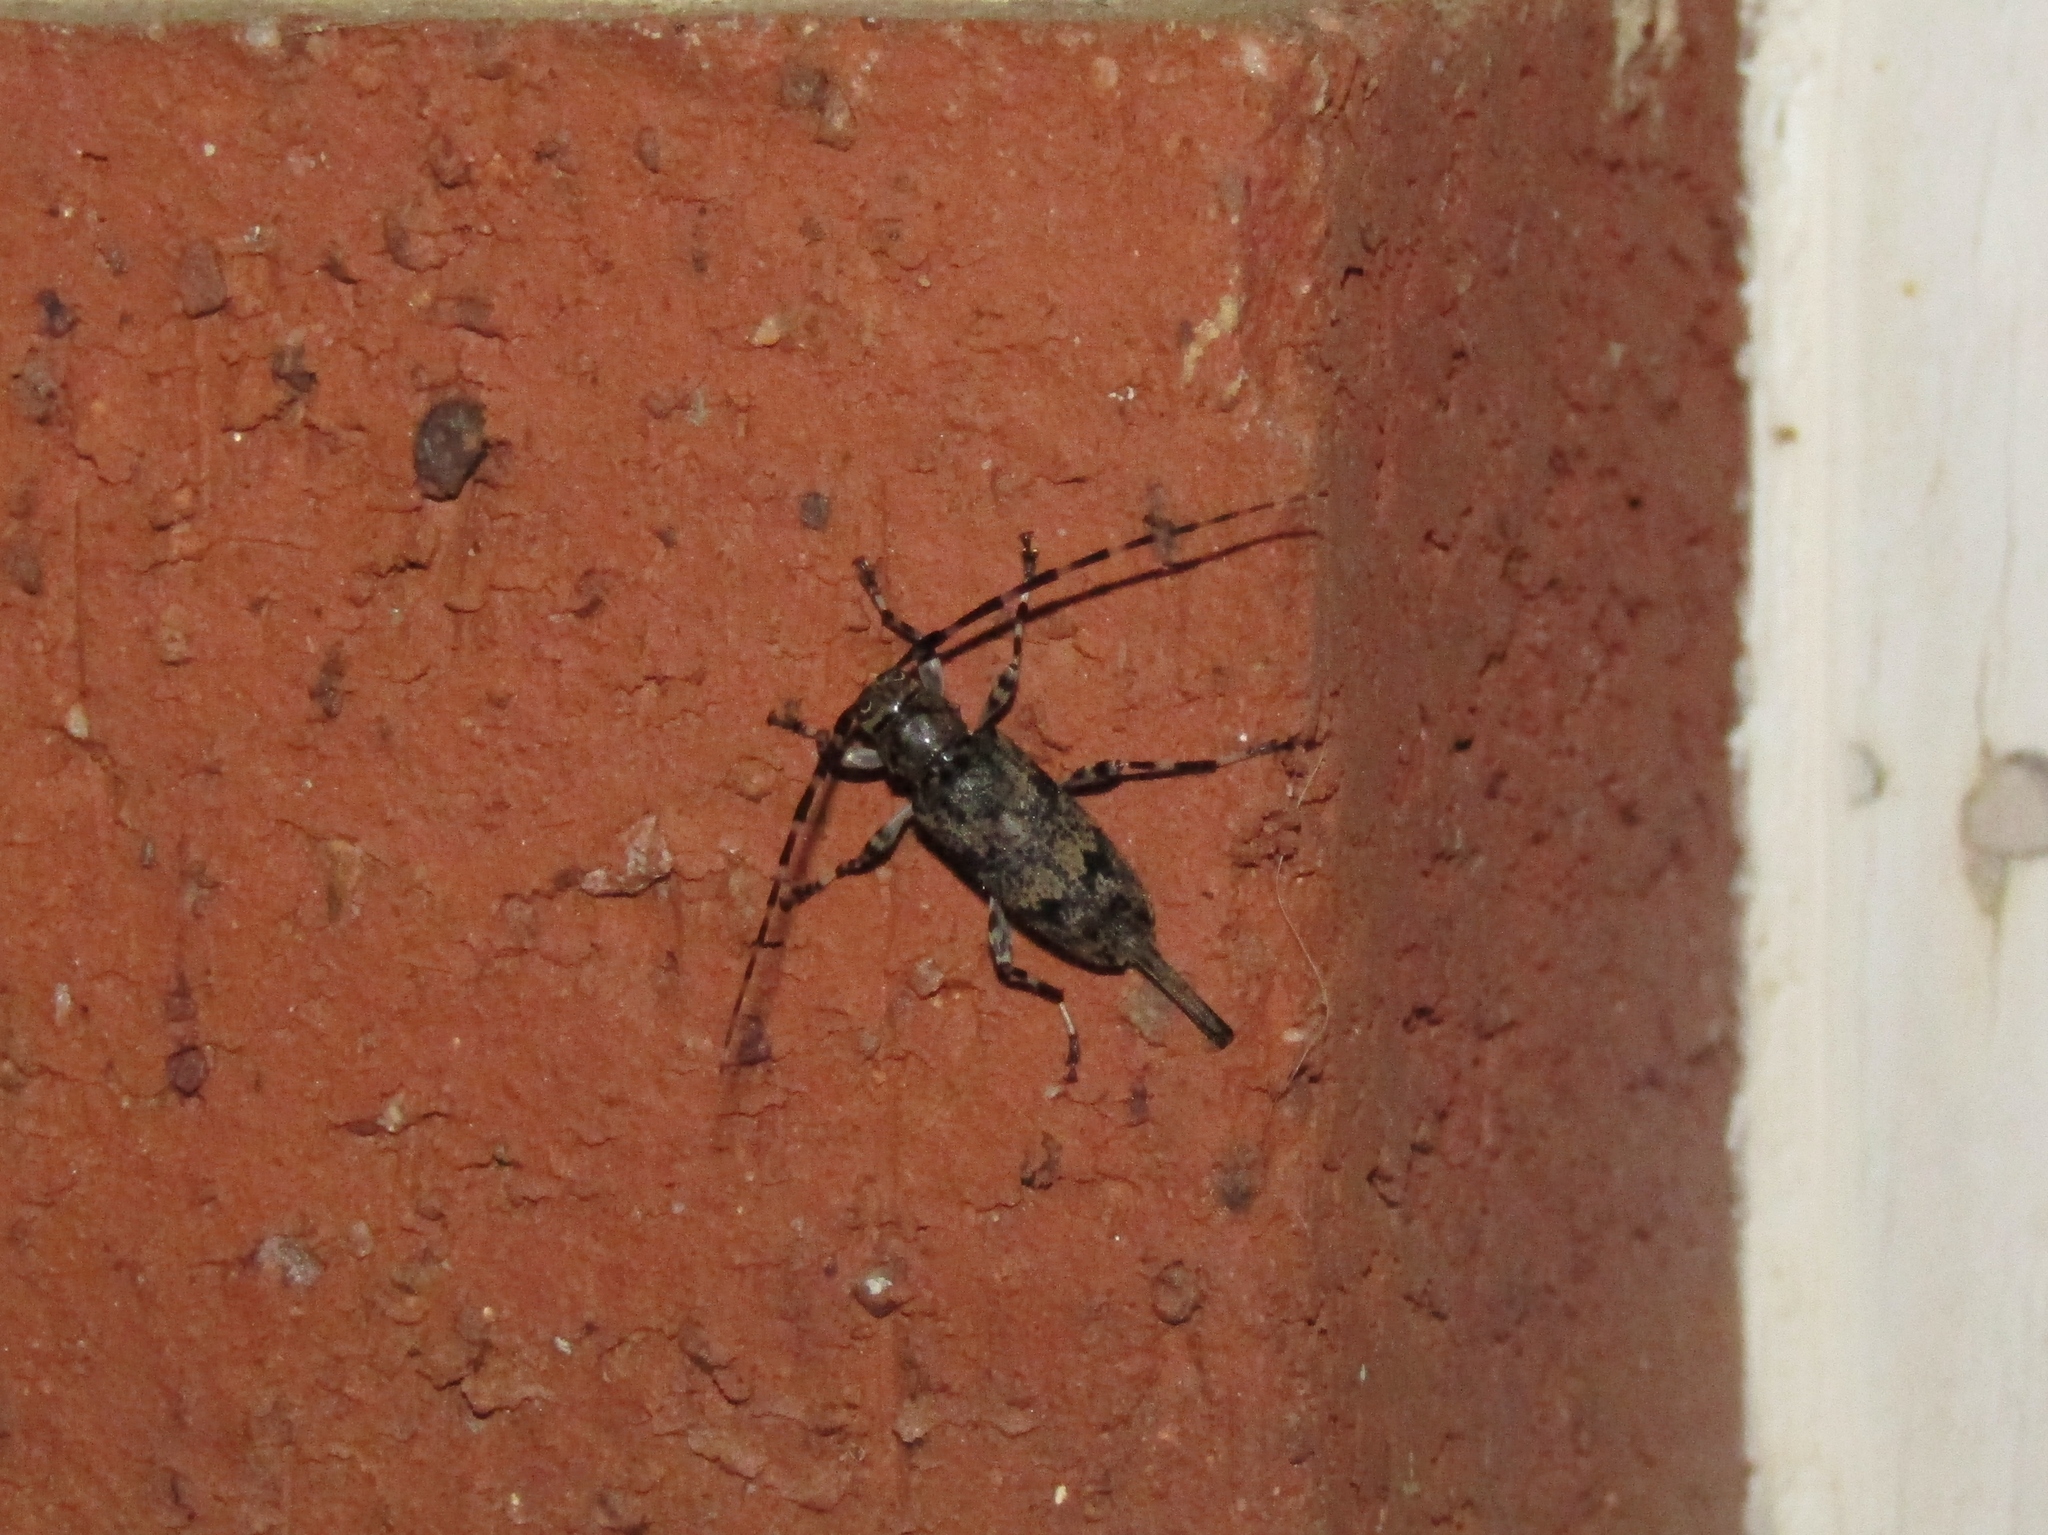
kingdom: Animalia
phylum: Arthropoda
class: Insecta
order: Coleoptera
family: Cerambycidae
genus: Graphisurus
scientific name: Graphisurus fasciatus
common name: Banded graphisurus
